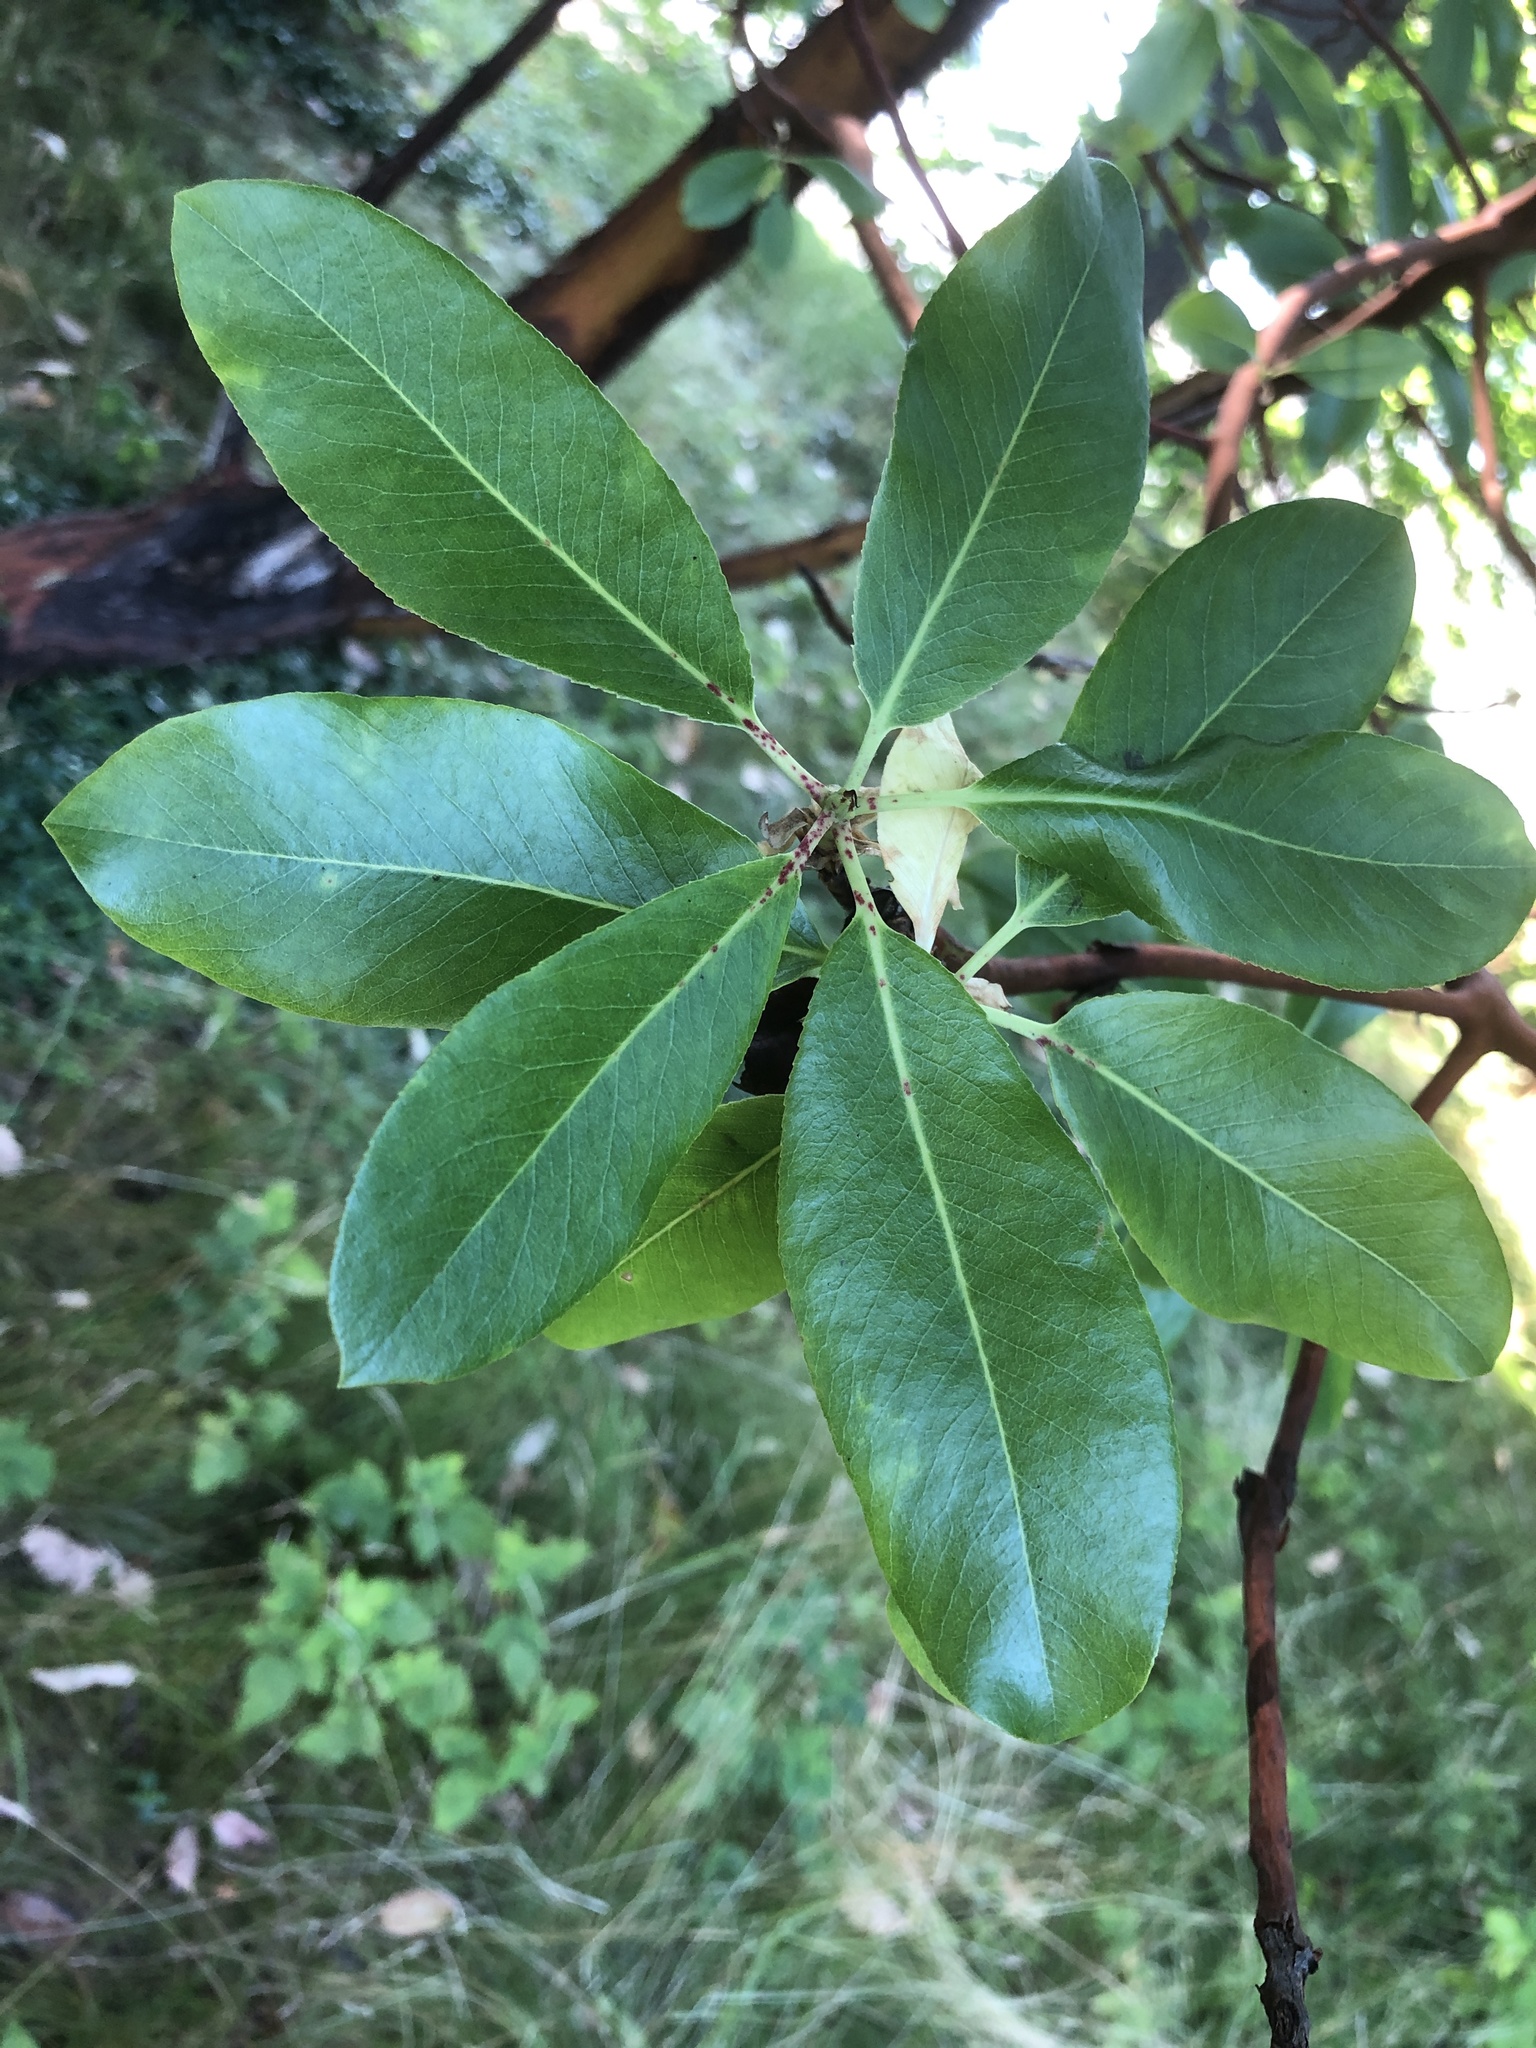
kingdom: Plantae
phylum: Tracheophyta
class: Magnoliopsida
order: Ericales
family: Ericaceae
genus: Arbutus
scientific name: Arbutus menziesii
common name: Pacific madrone
